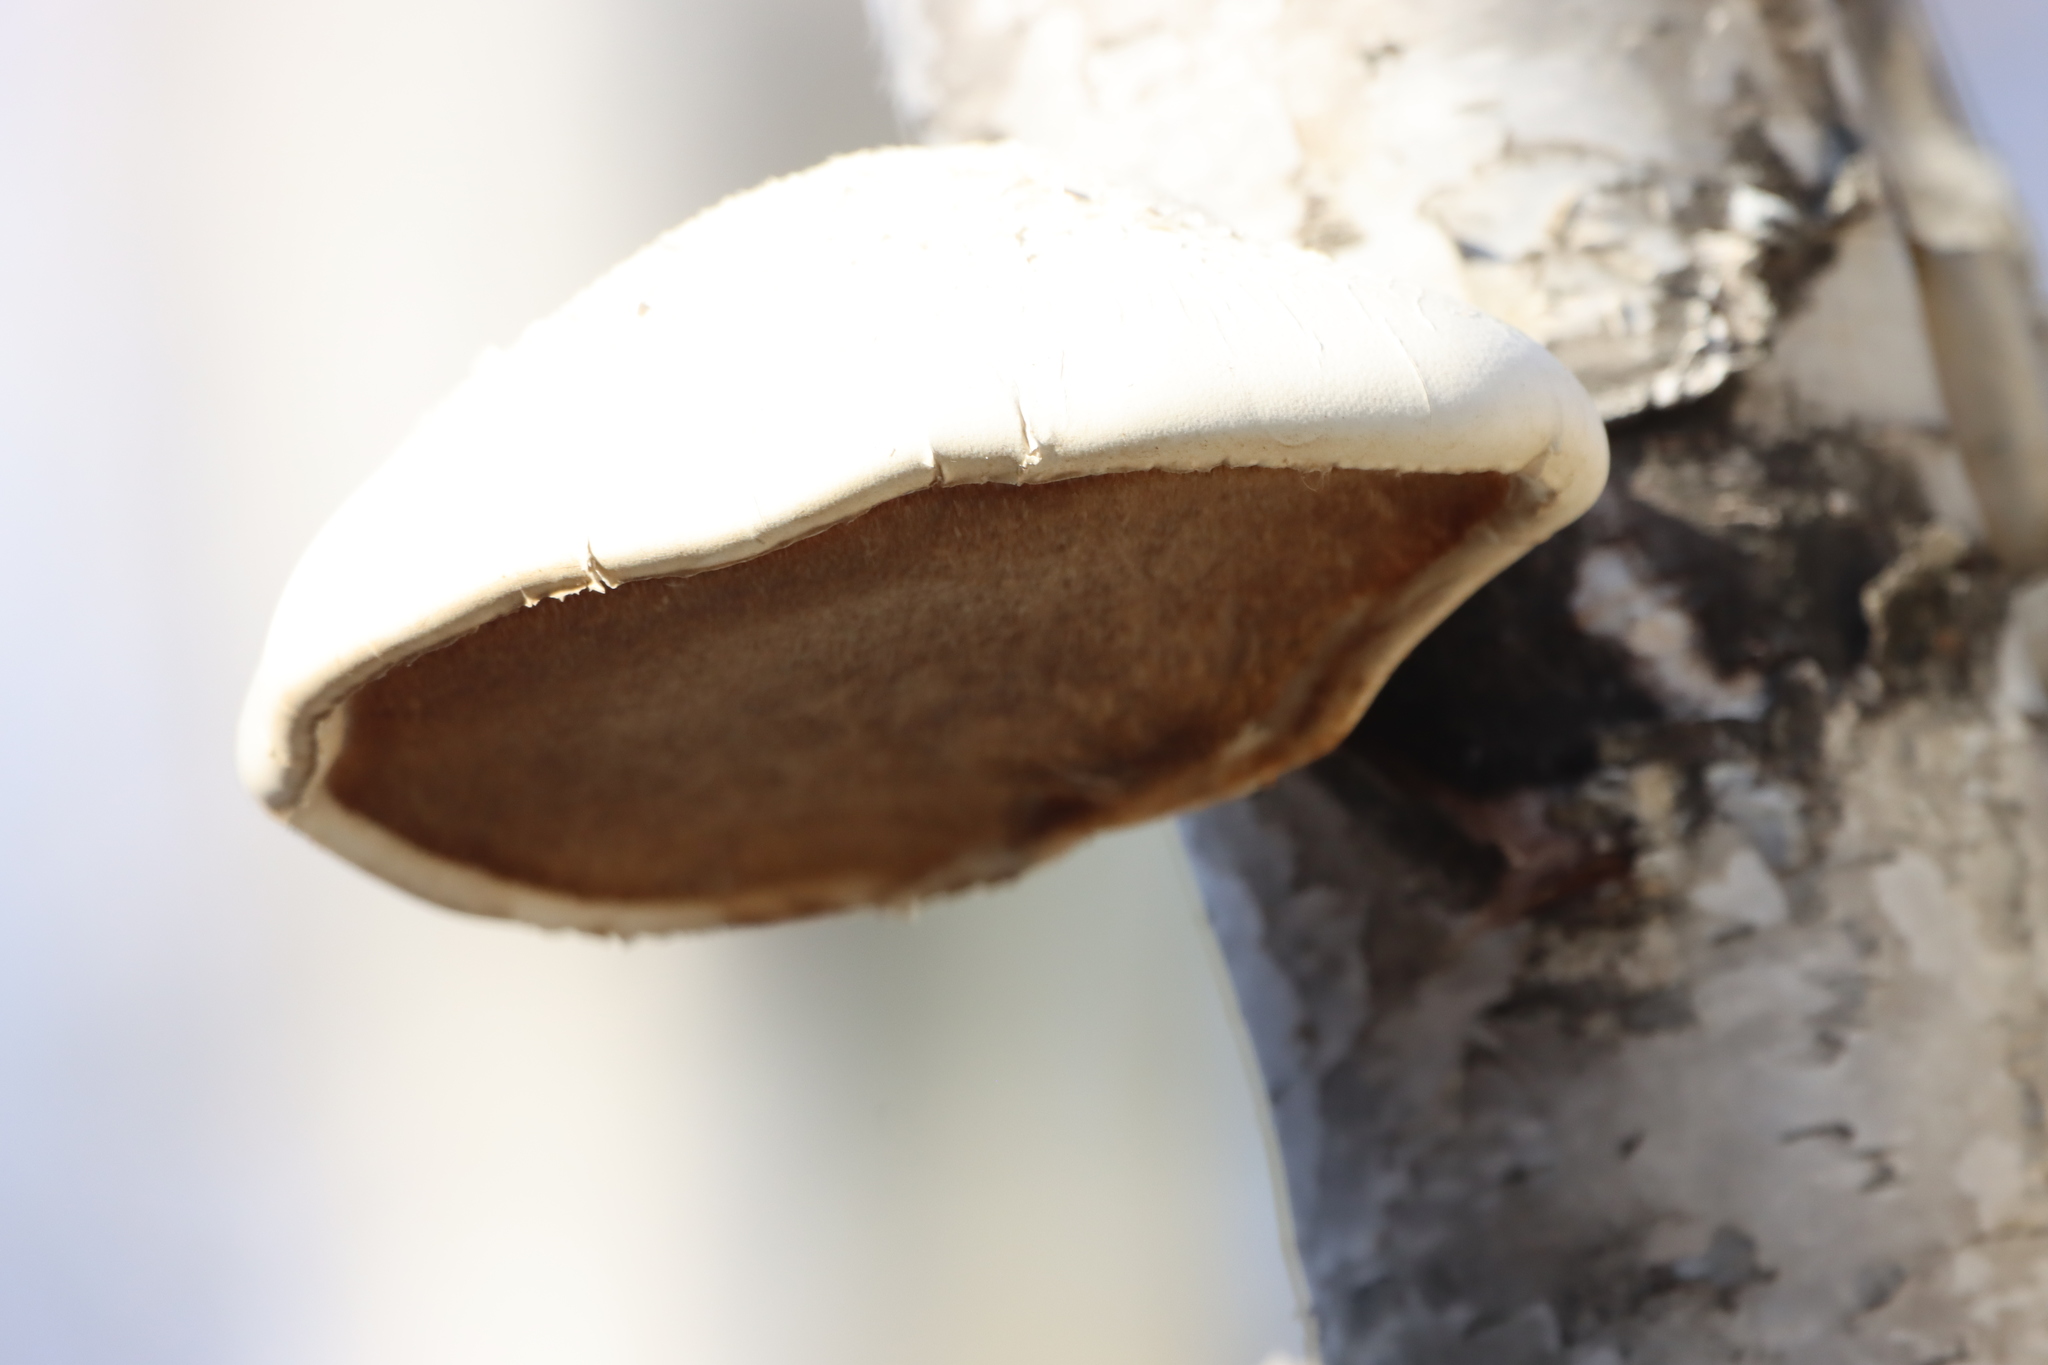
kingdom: Fungi
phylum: Basidiomycota
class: Agaricomycetes
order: Polyporales
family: Fomitopsidaceae
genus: Fomitopsis
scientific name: Fomitopsis betulina
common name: Birch polypore
